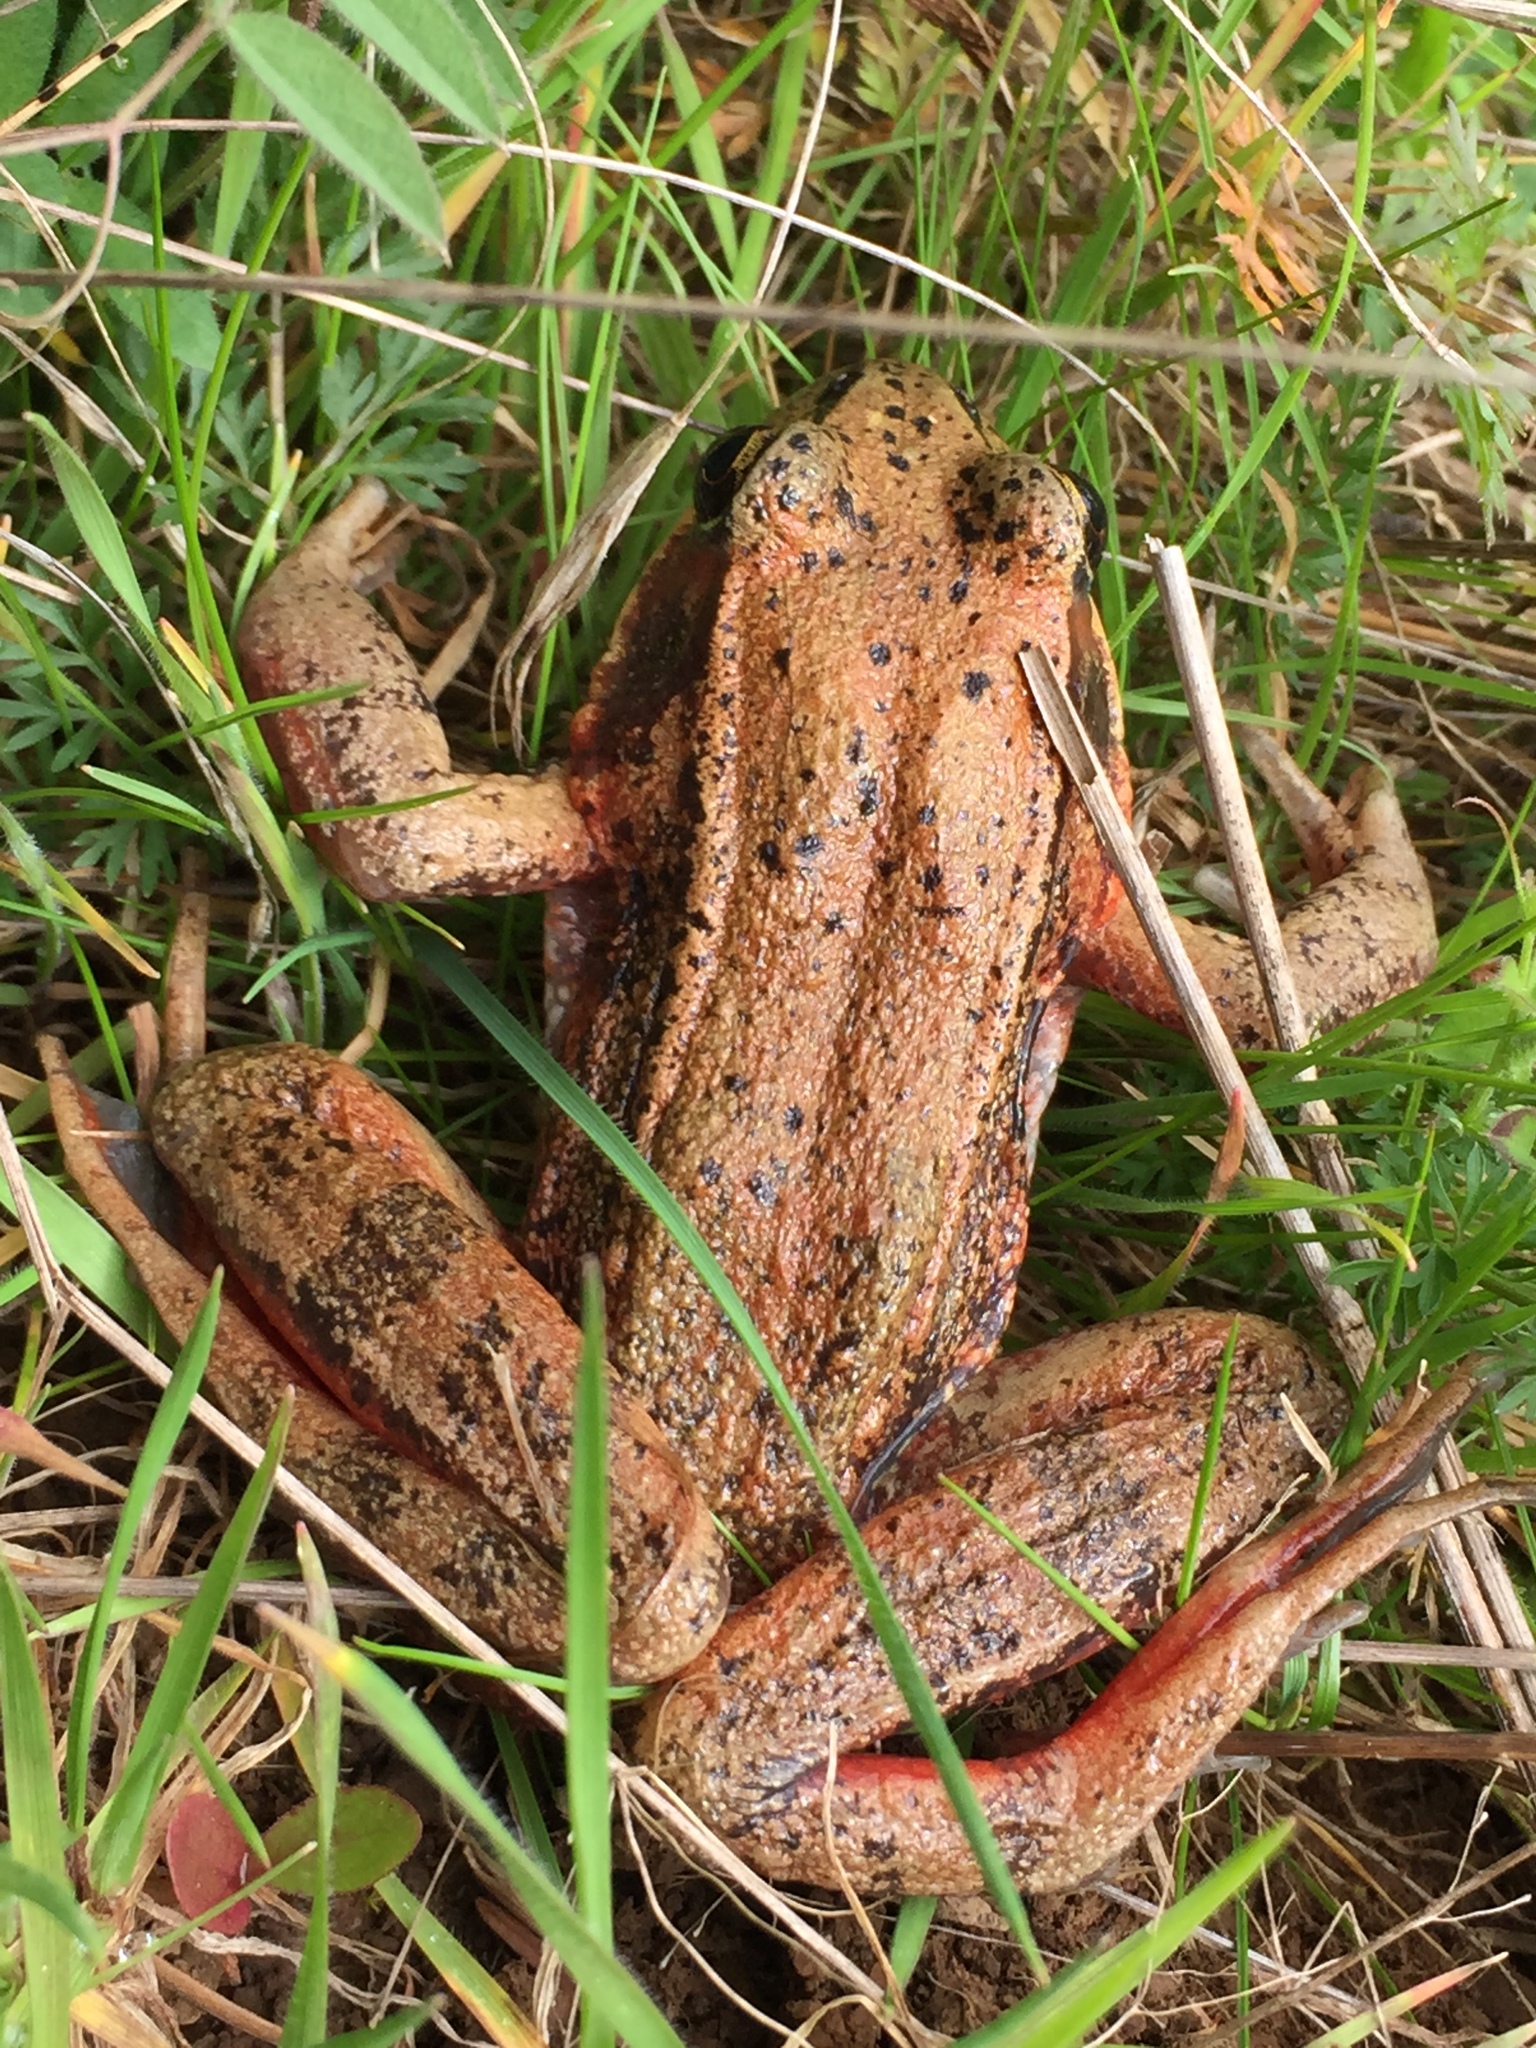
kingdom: Animalia
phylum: Chordata
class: Amphibia
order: Anura
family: Ranidae
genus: Rana
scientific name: Rana aurora
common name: Red-legged frog
